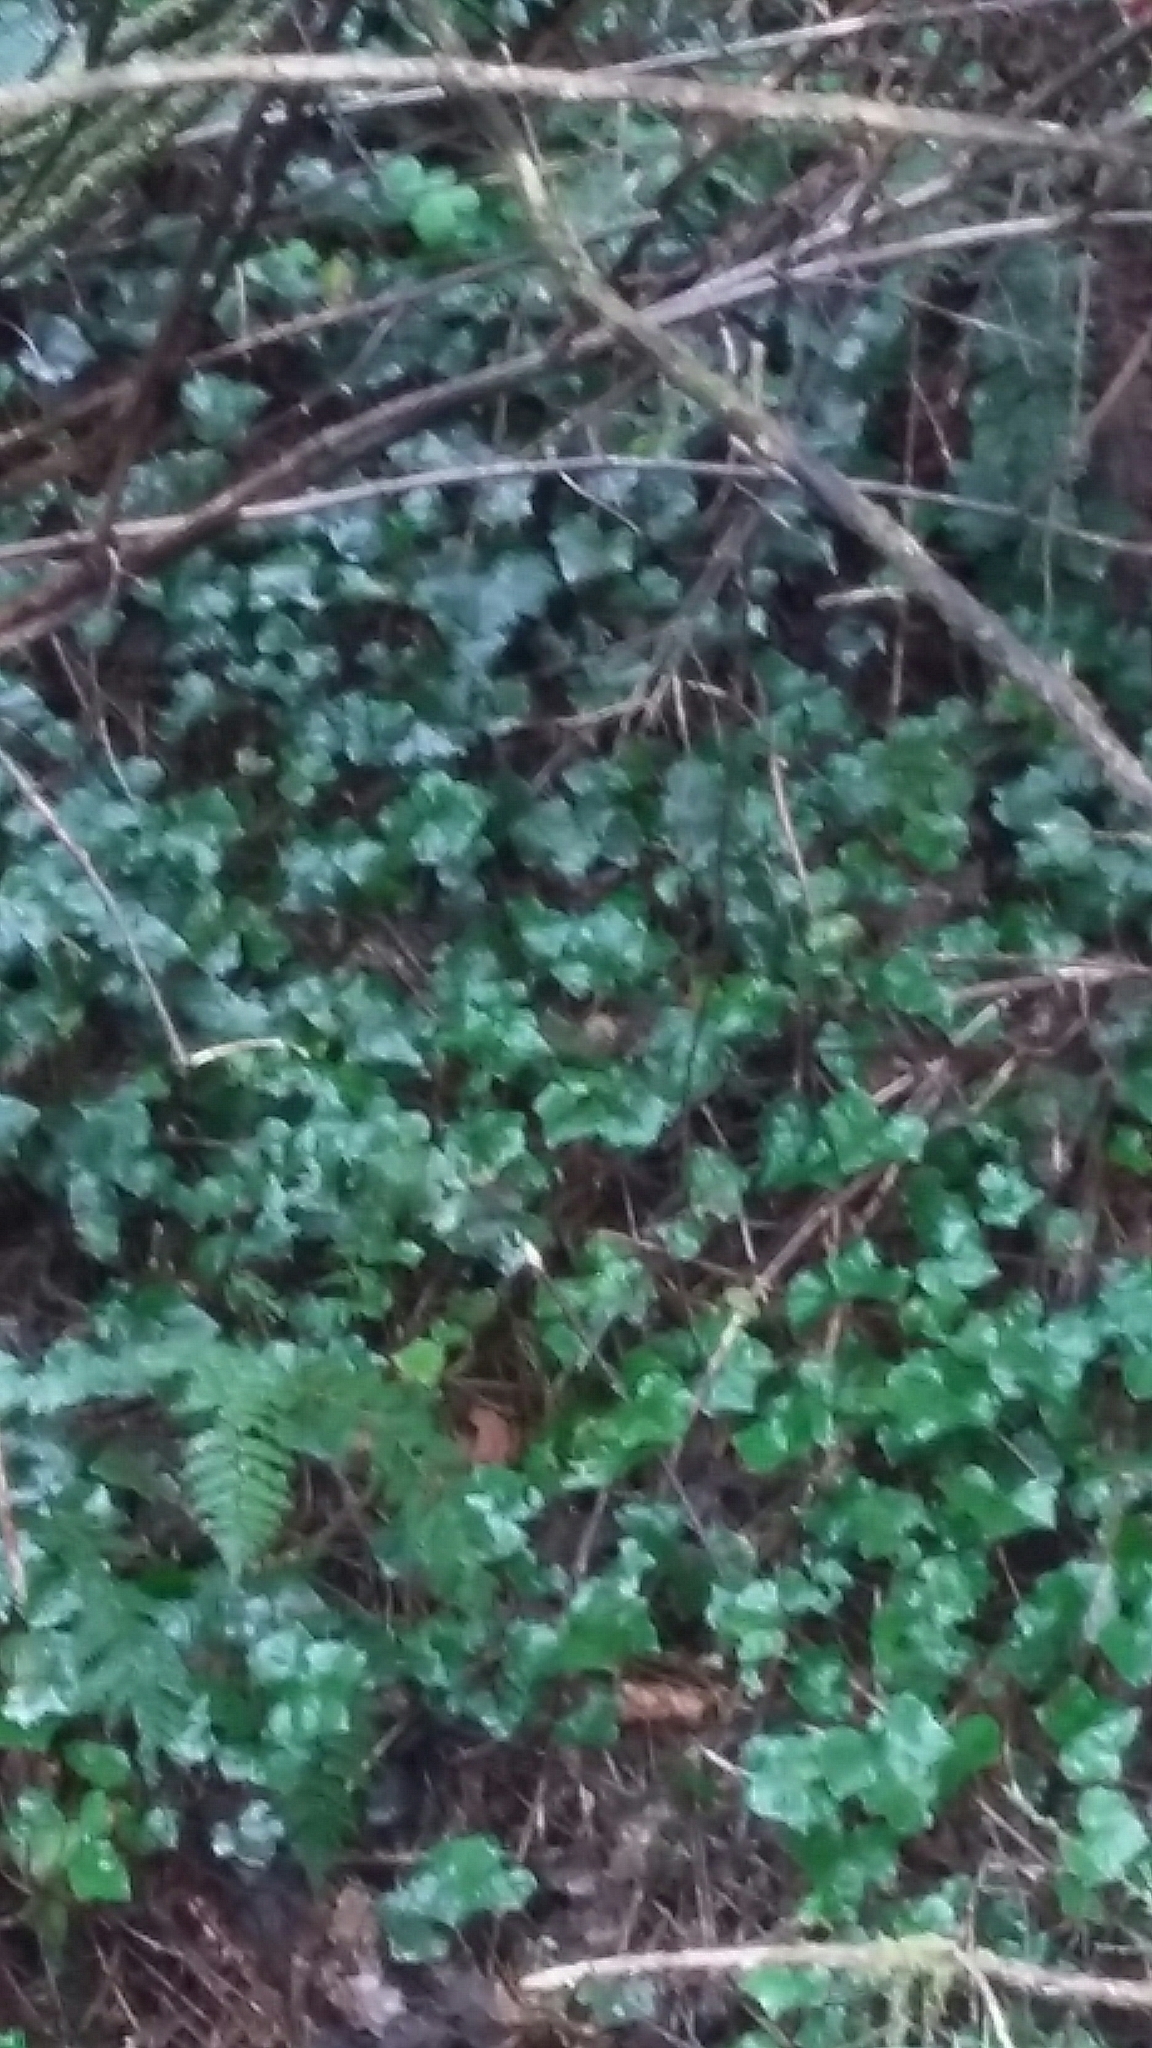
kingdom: Plantae
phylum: Tracheophyta
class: Magnoliopsida
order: Apiales
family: Araliaceae
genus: Hedera
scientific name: Hedera
